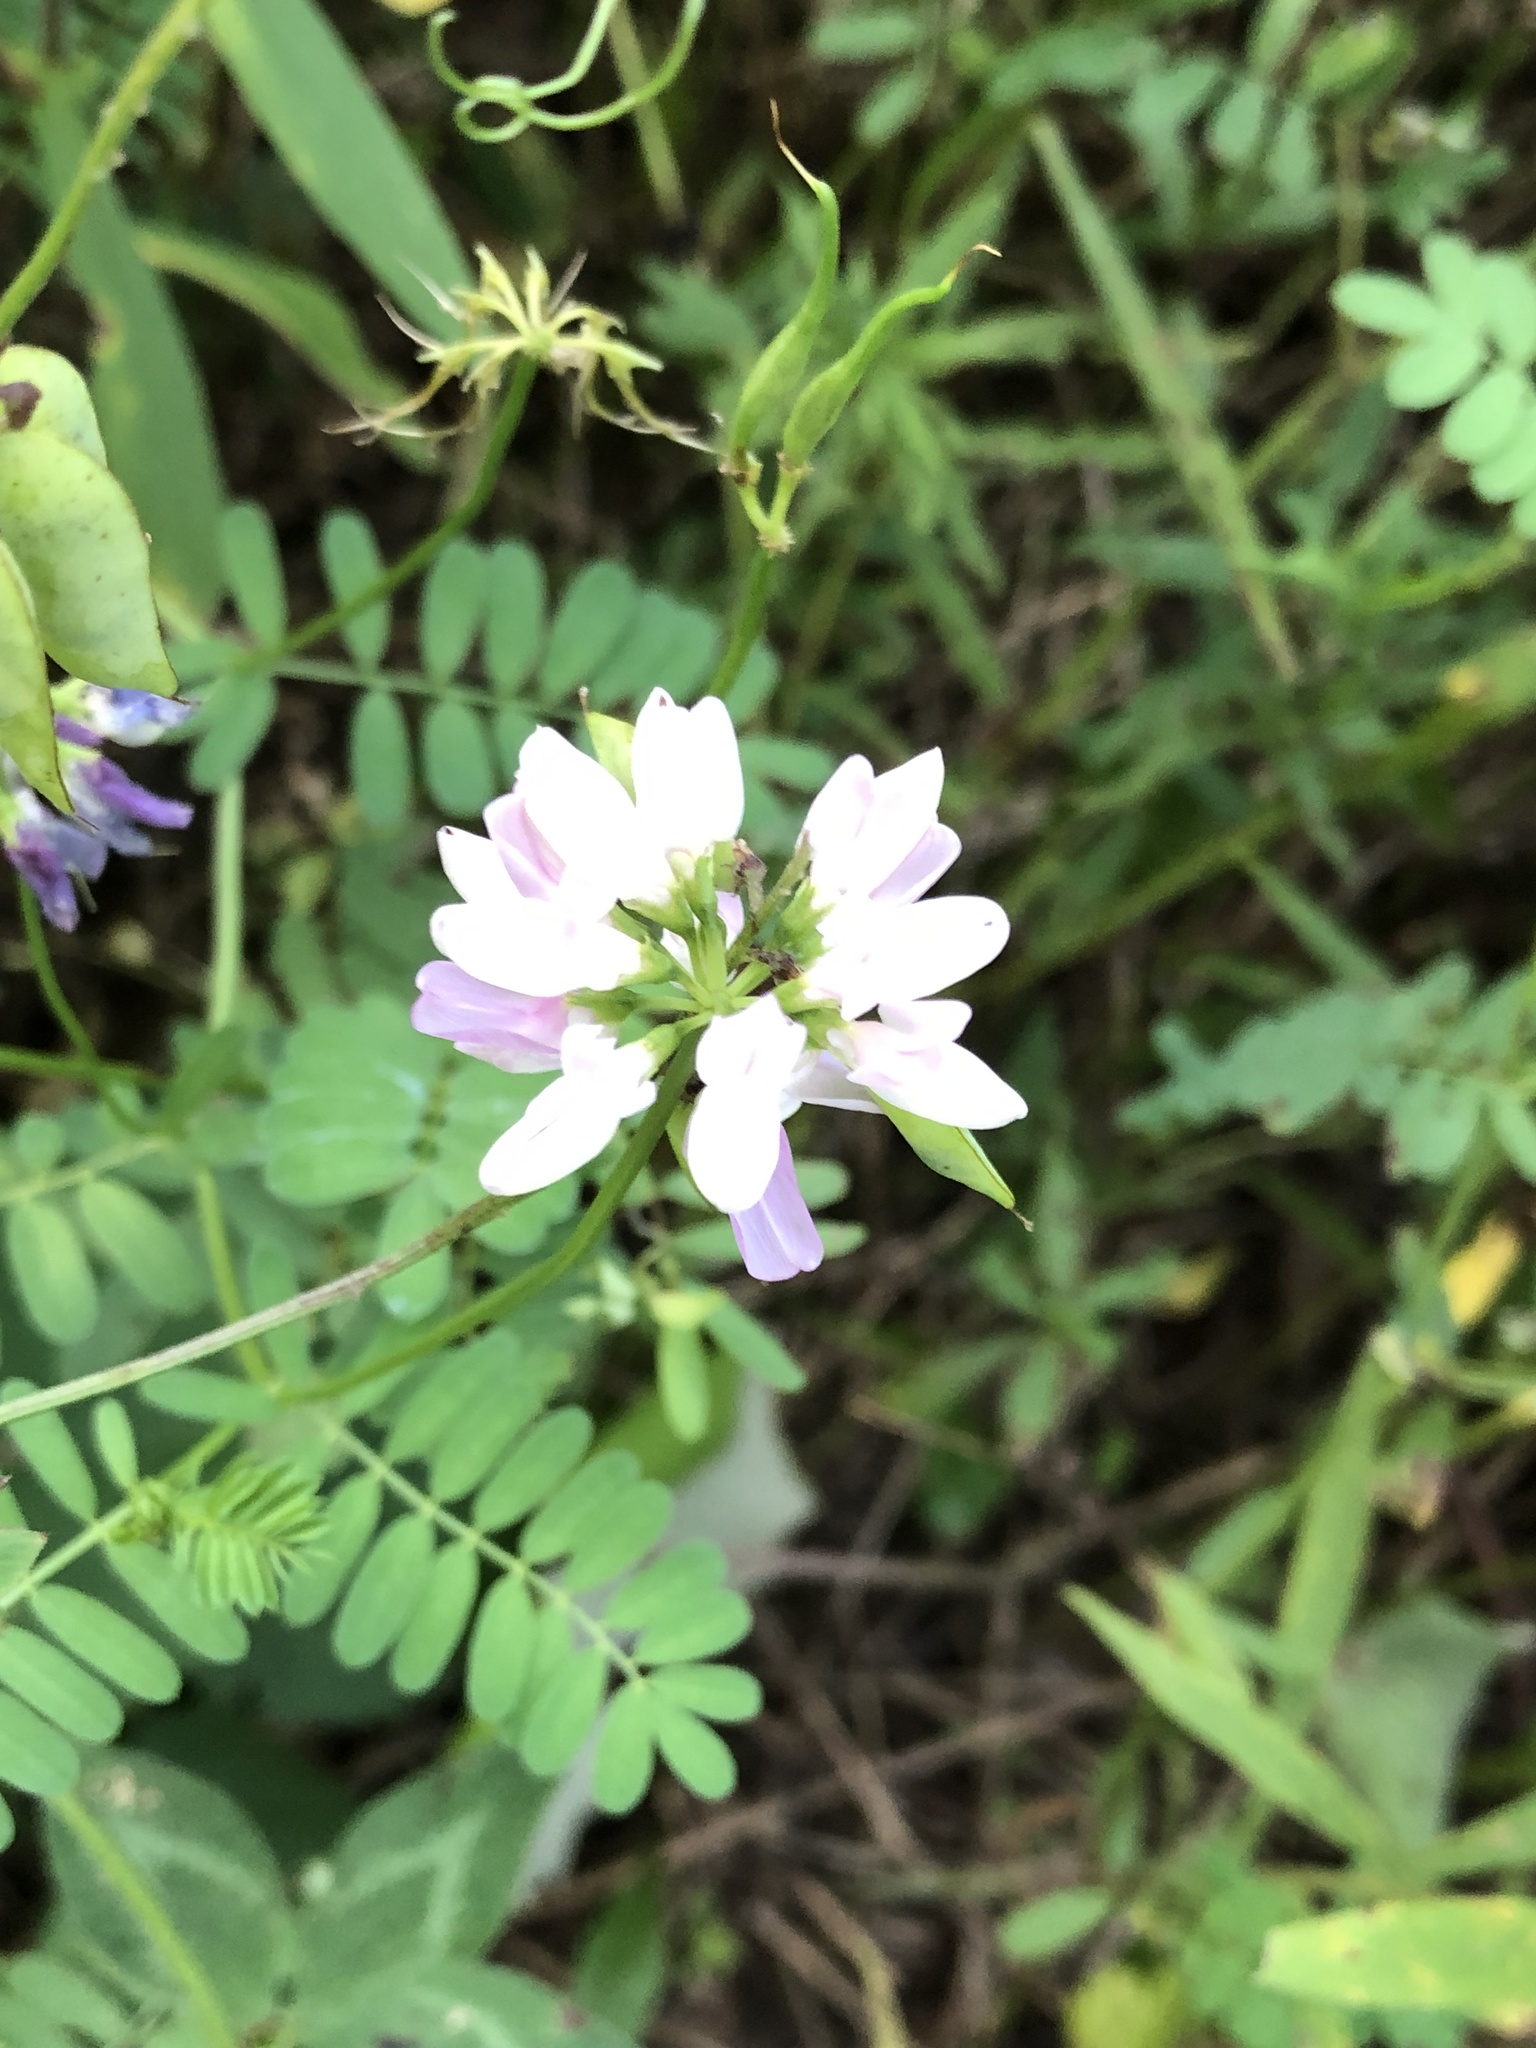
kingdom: Plantae
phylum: Tracheophyta
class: Magnoliopsida
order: Fabales
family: Fabaceae
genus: Coronilla
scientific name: Coronilla varia
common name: Crownvetch
